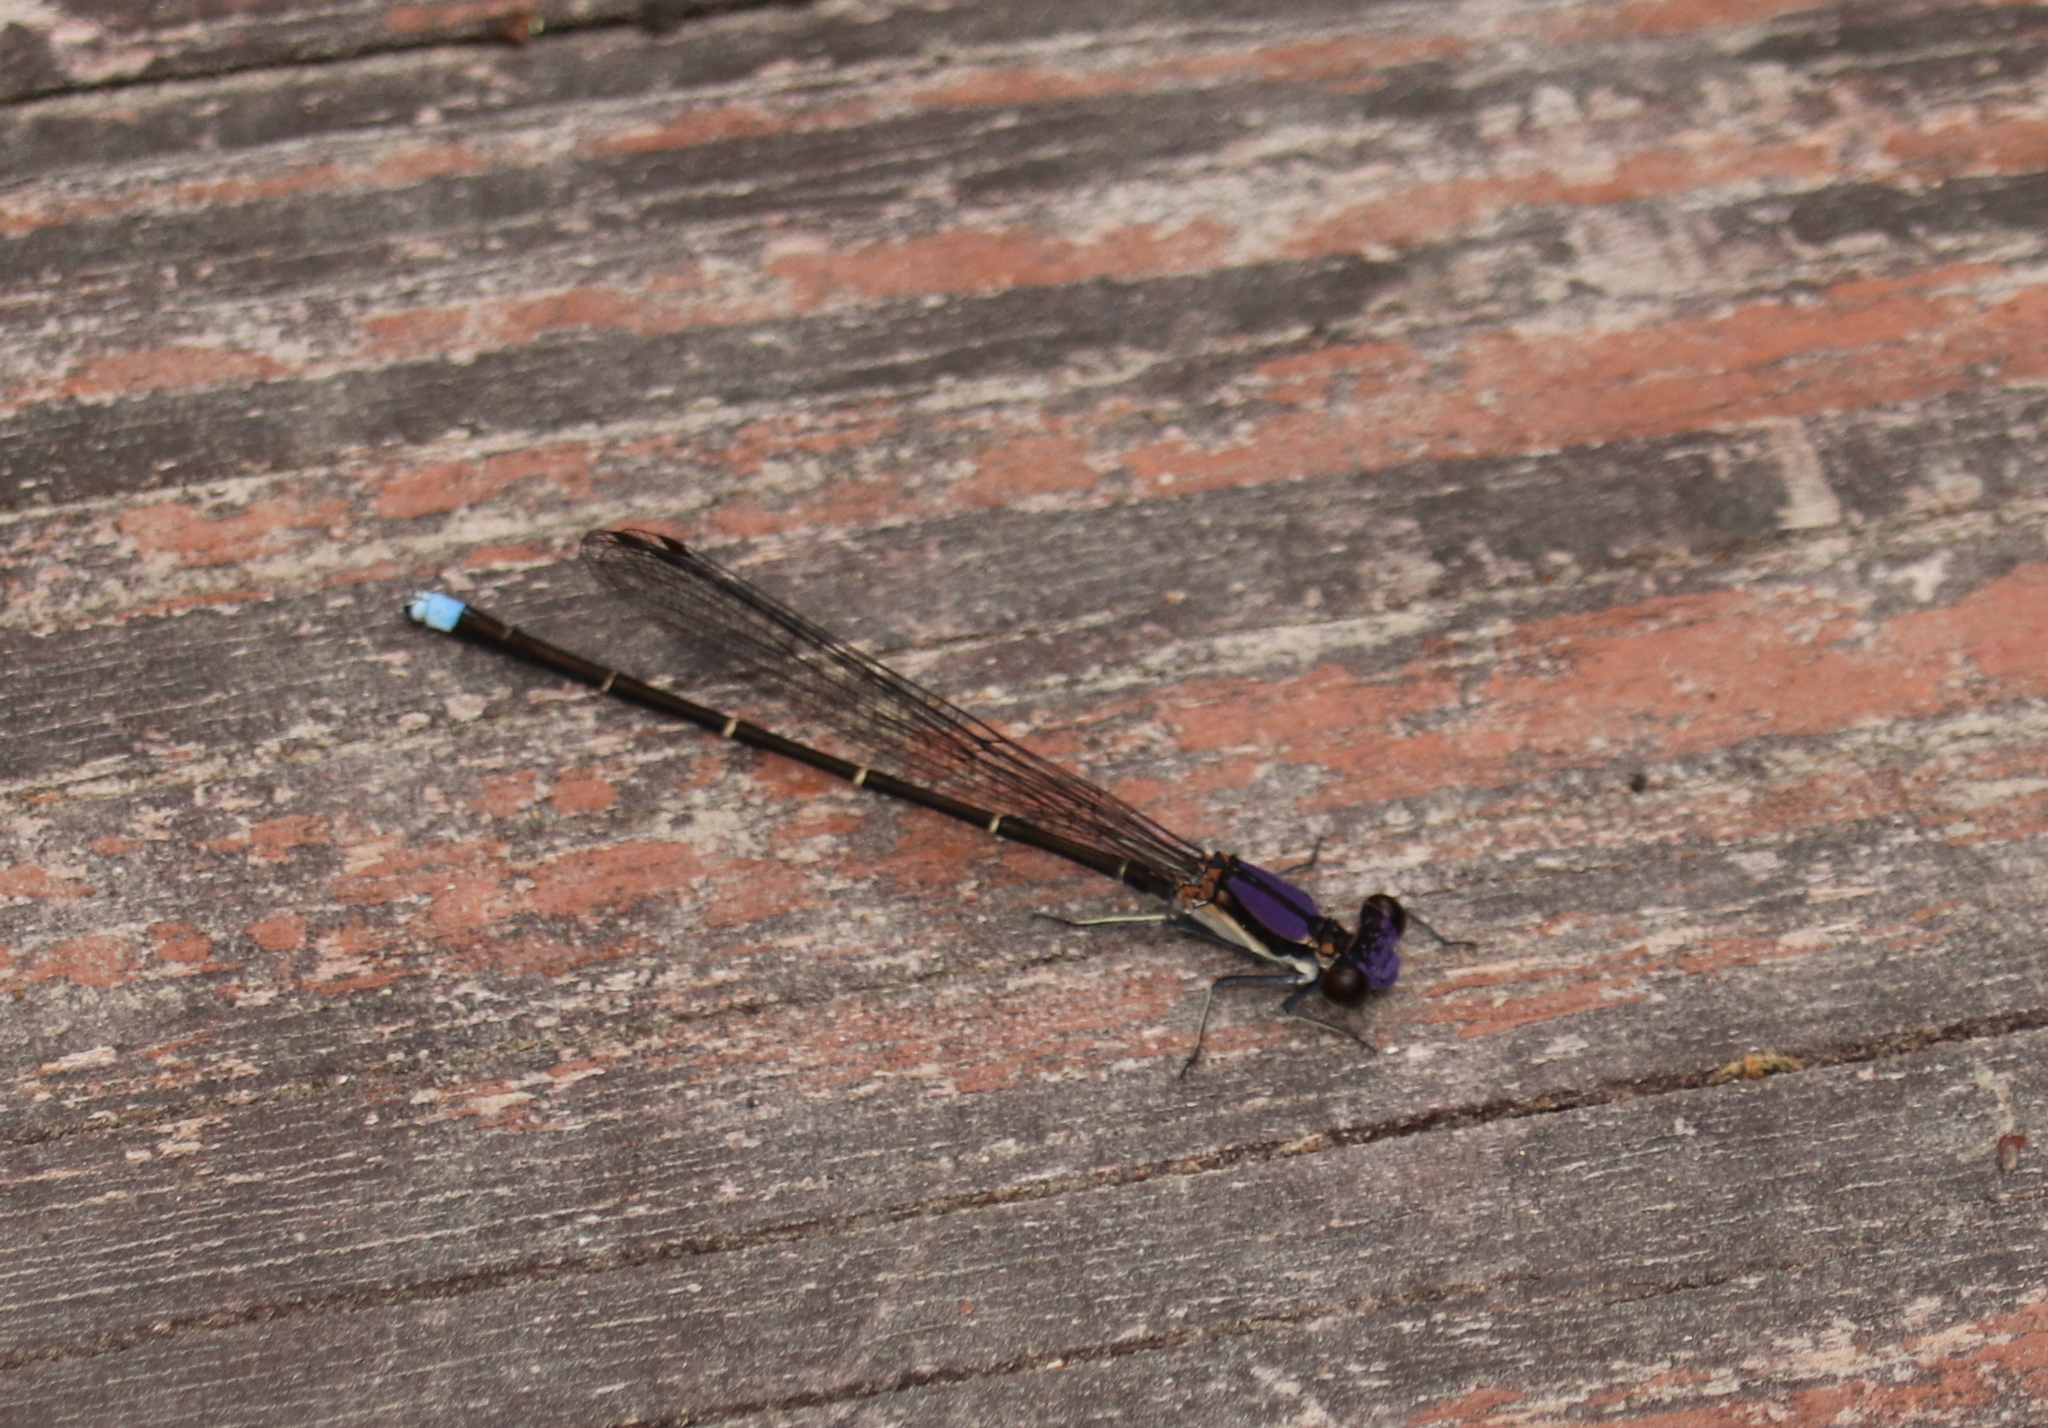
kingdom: Animalia
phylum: Arthropoda
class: Insecta
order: Odonata
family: Coenagrionidae
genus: Argia
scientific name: Argia tibialis
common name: Blue-tipped dancer
